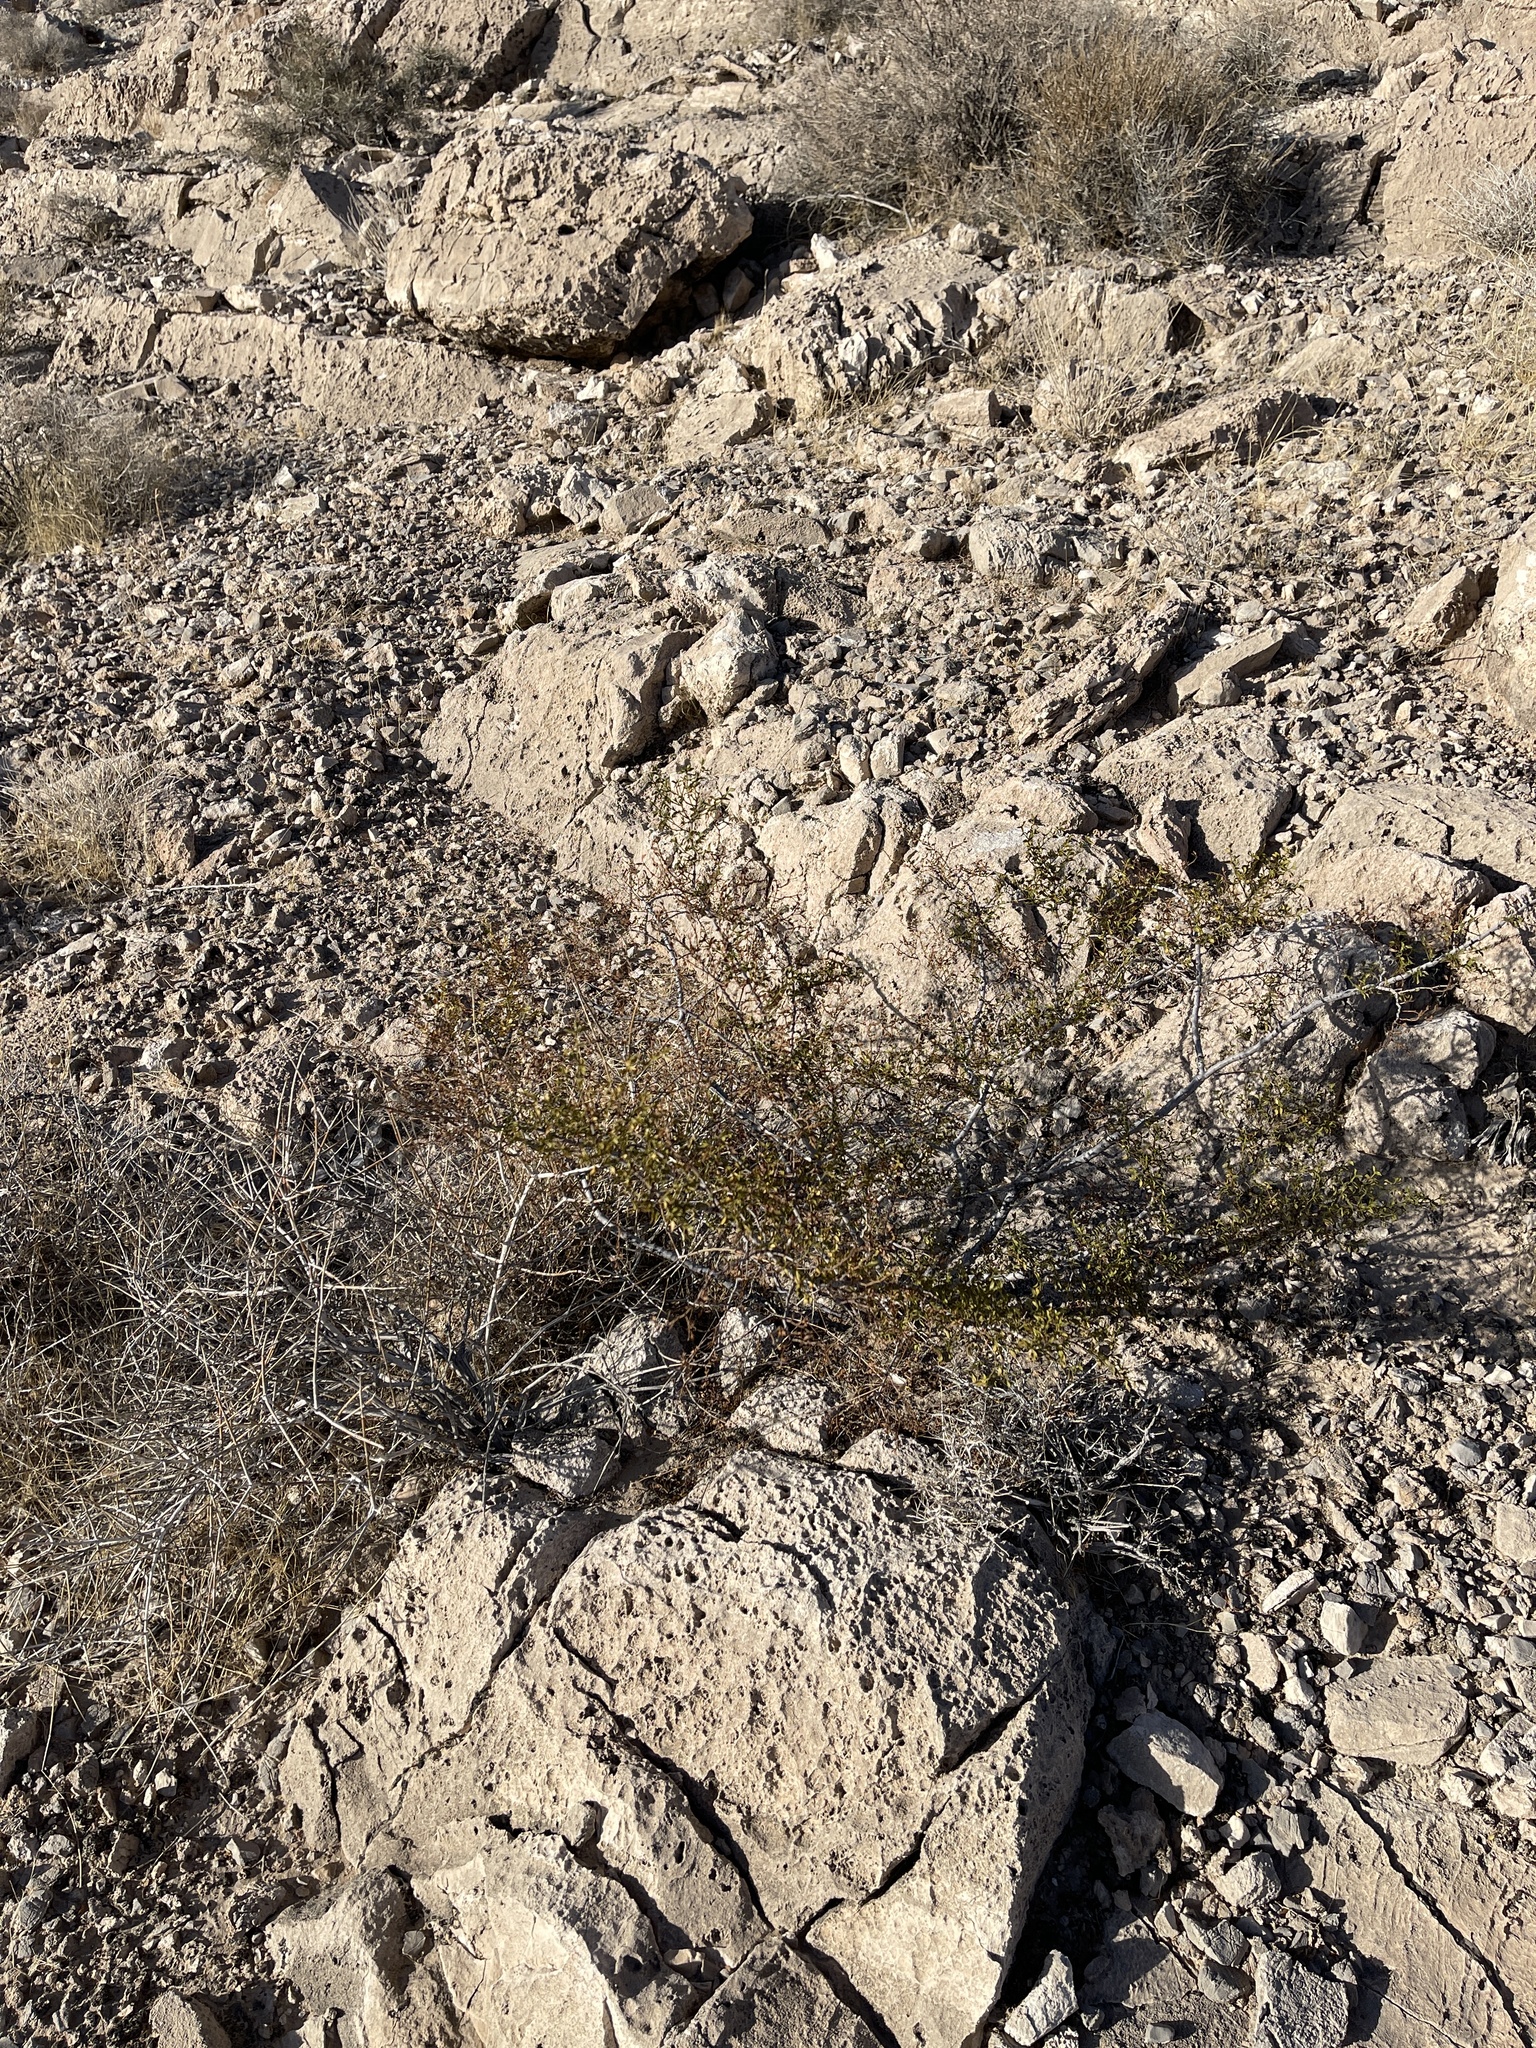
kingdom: Plantae
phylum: Tracheophyta
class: Magnoliopsida
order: Zygophyllales
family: Zygophyllaceae
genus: Larrea
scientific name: Larrea tridentata
